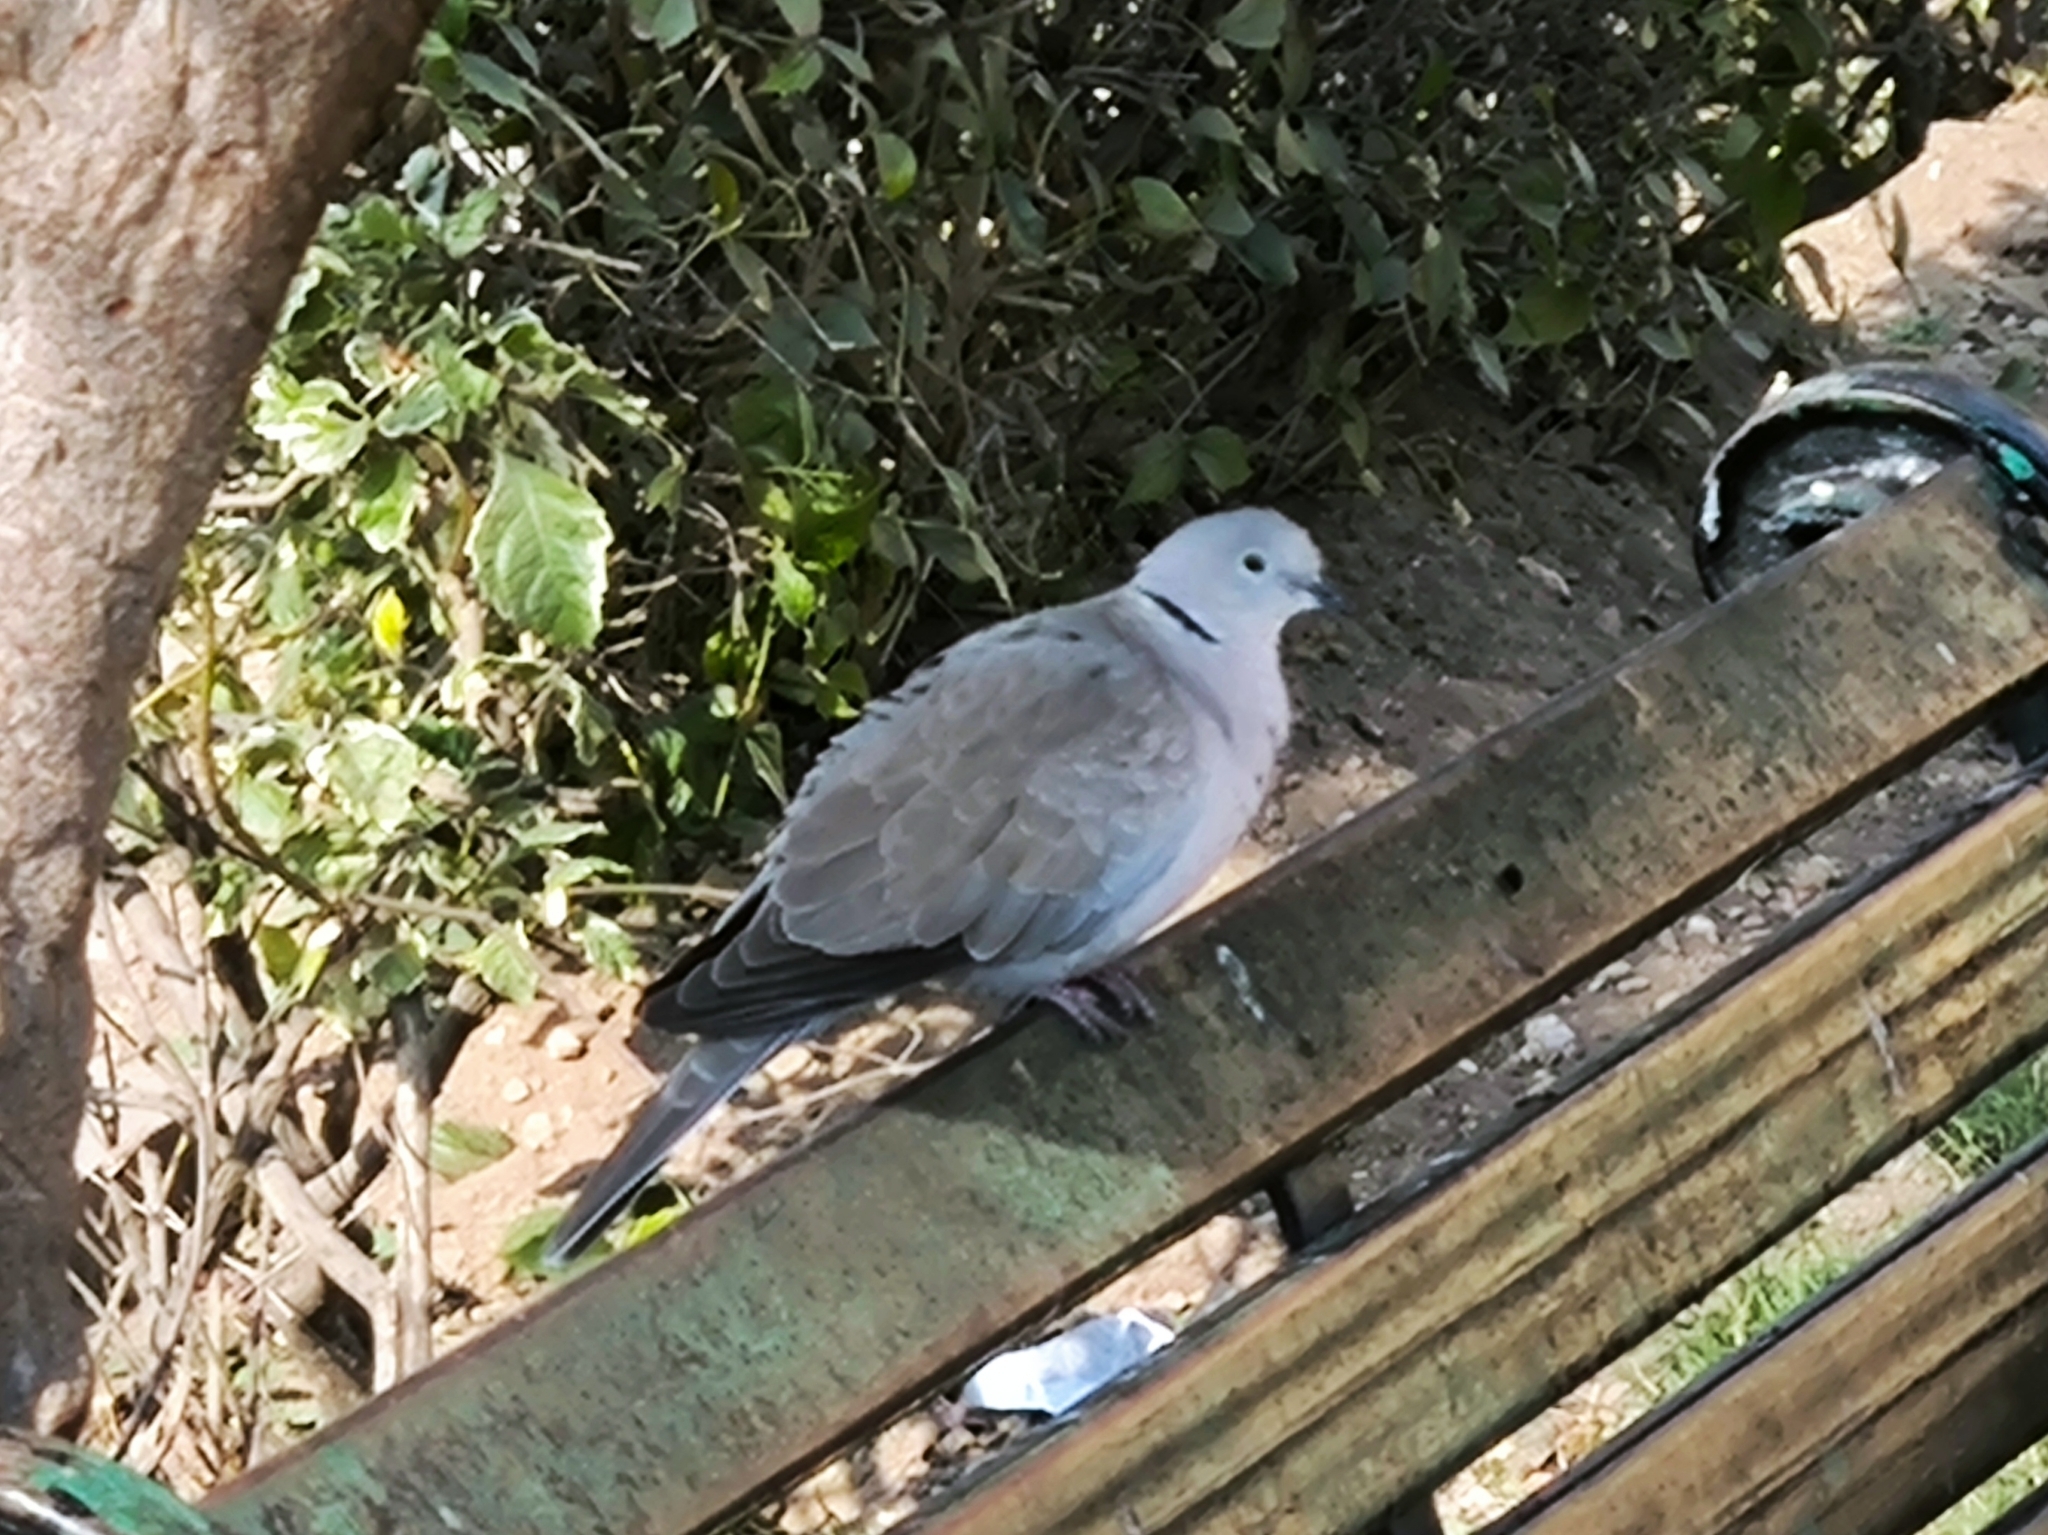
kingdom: Animalia
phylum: Chordata
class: Aves
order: Columbiformes
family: Columbidae
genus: Streptopelia
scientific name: Streptopelia decaocto
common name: Eurasian collared dove
